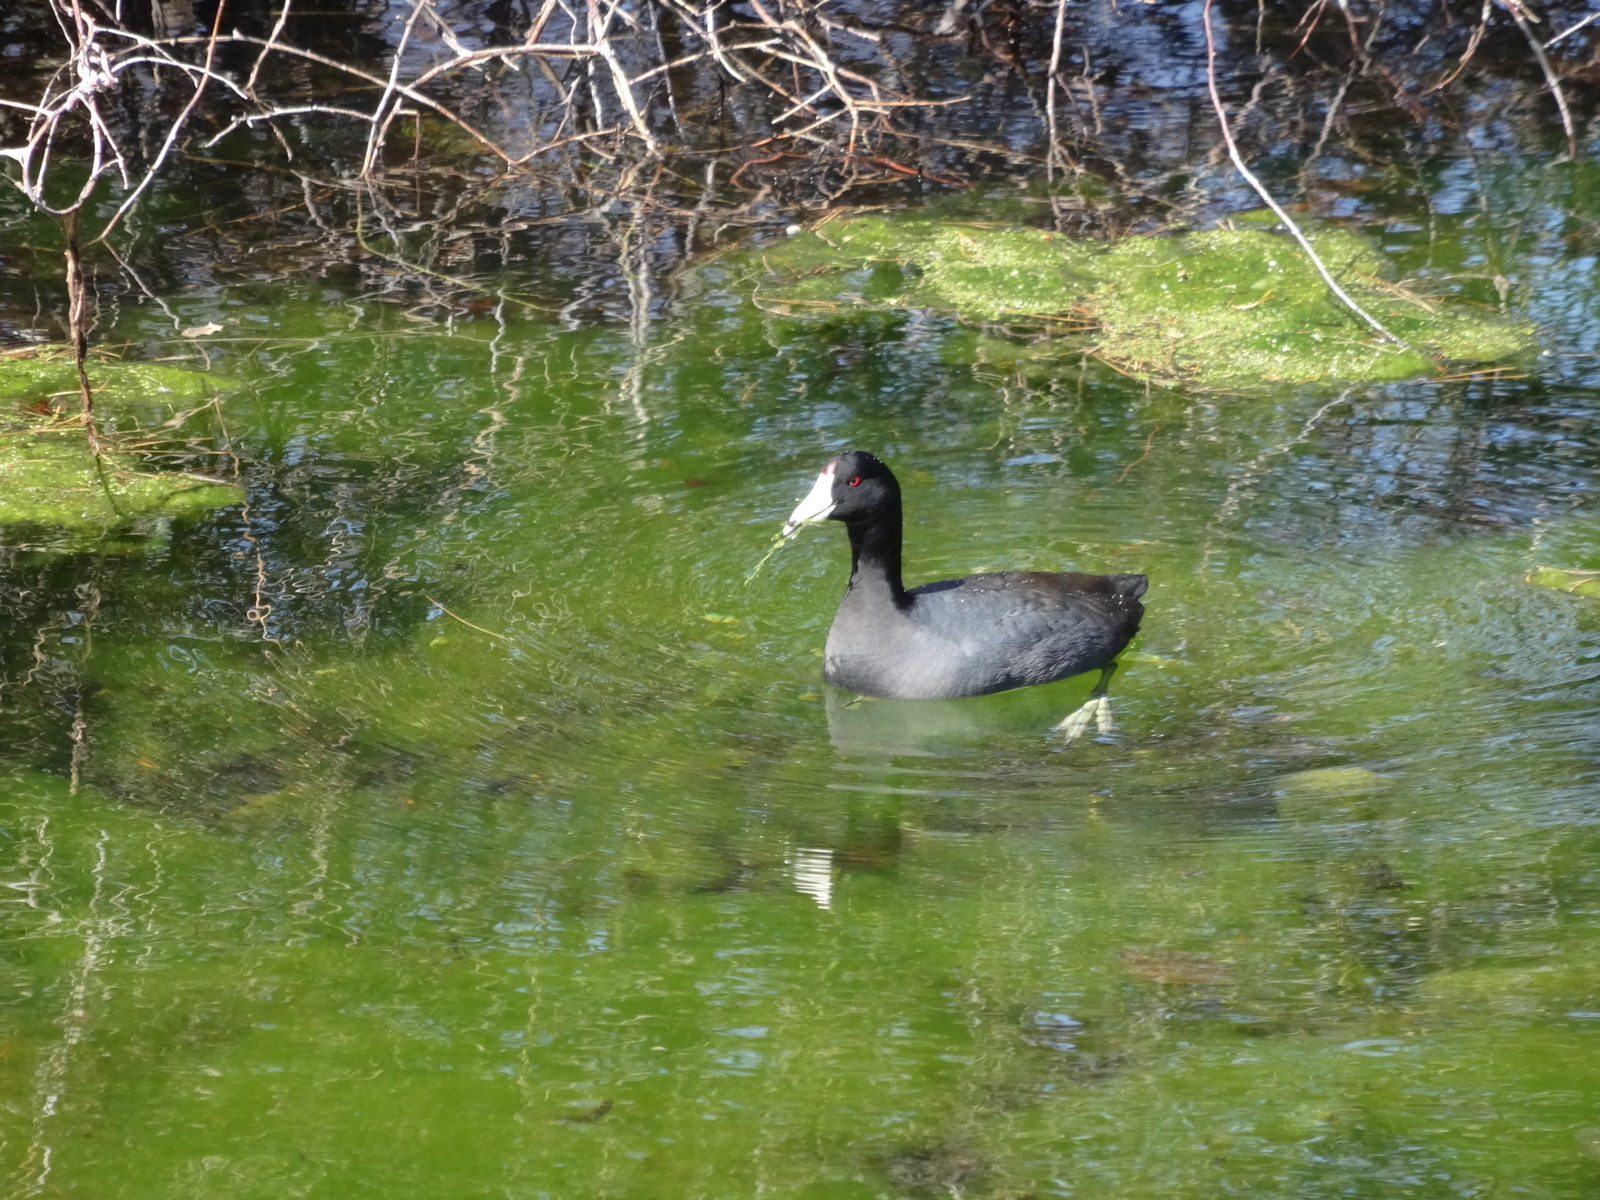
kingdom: Animalia
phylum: Chordata
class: Aves
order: Gruiformes
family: Rallidae
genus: Fulica
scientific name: Fulica americana
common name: American coot
